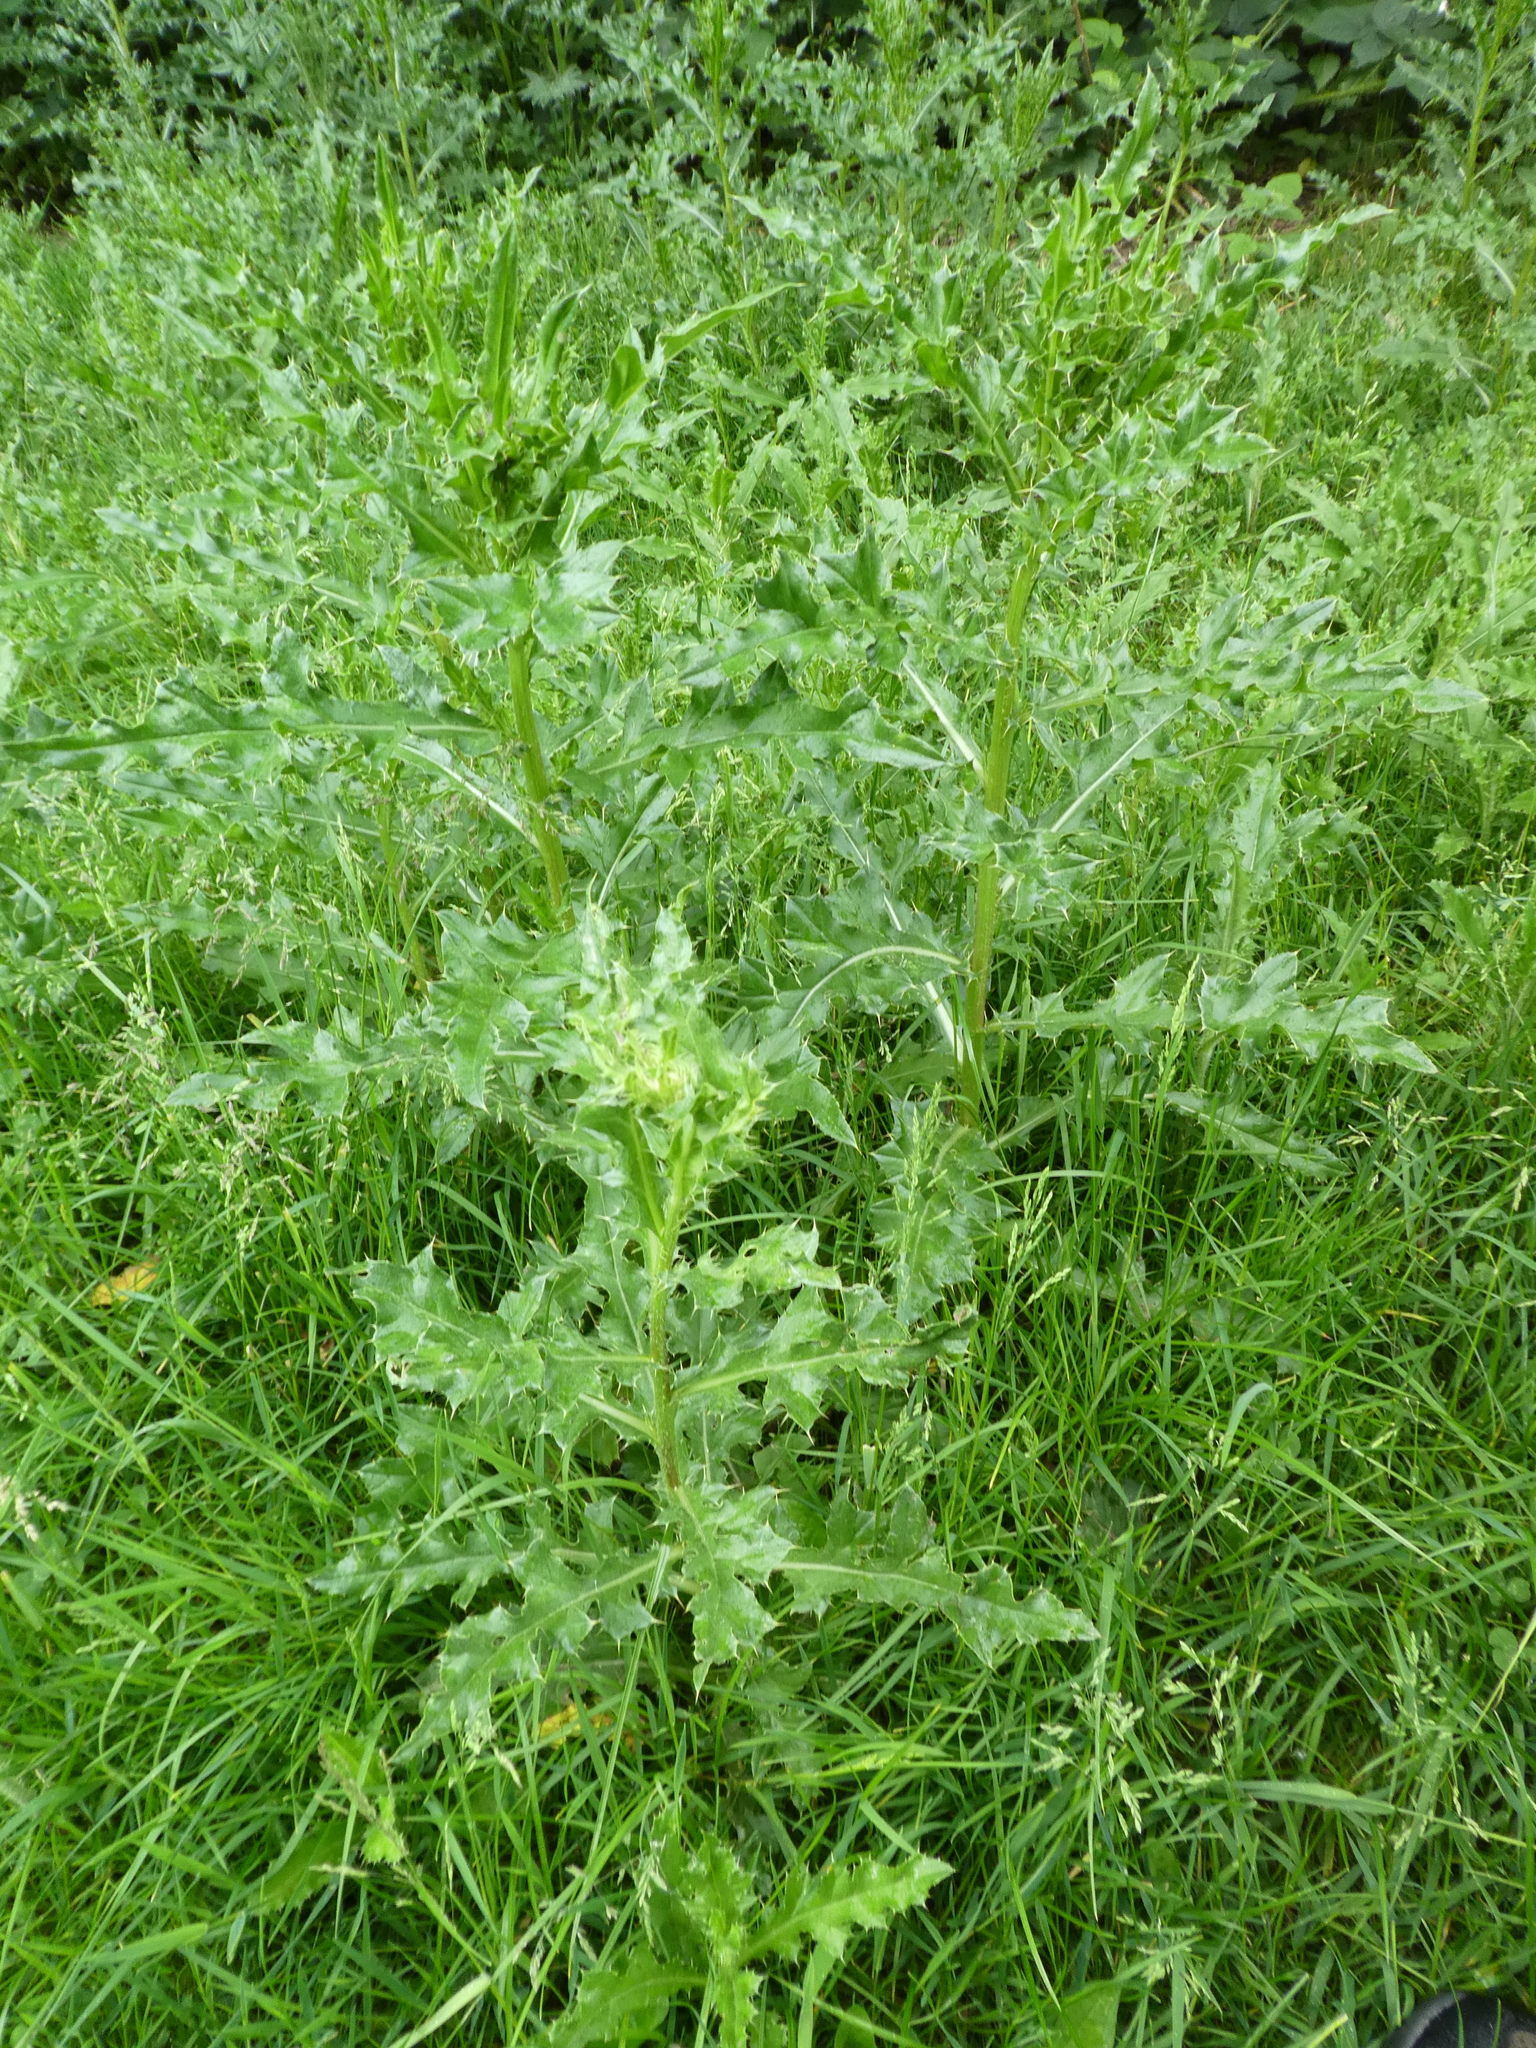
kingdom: Plantae
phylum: Tracheophyta
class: Magnoliopsida
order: Asterales
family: Asteraceae
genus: Cirsium
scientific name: Cirsium arvense
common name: Creeping thistle
